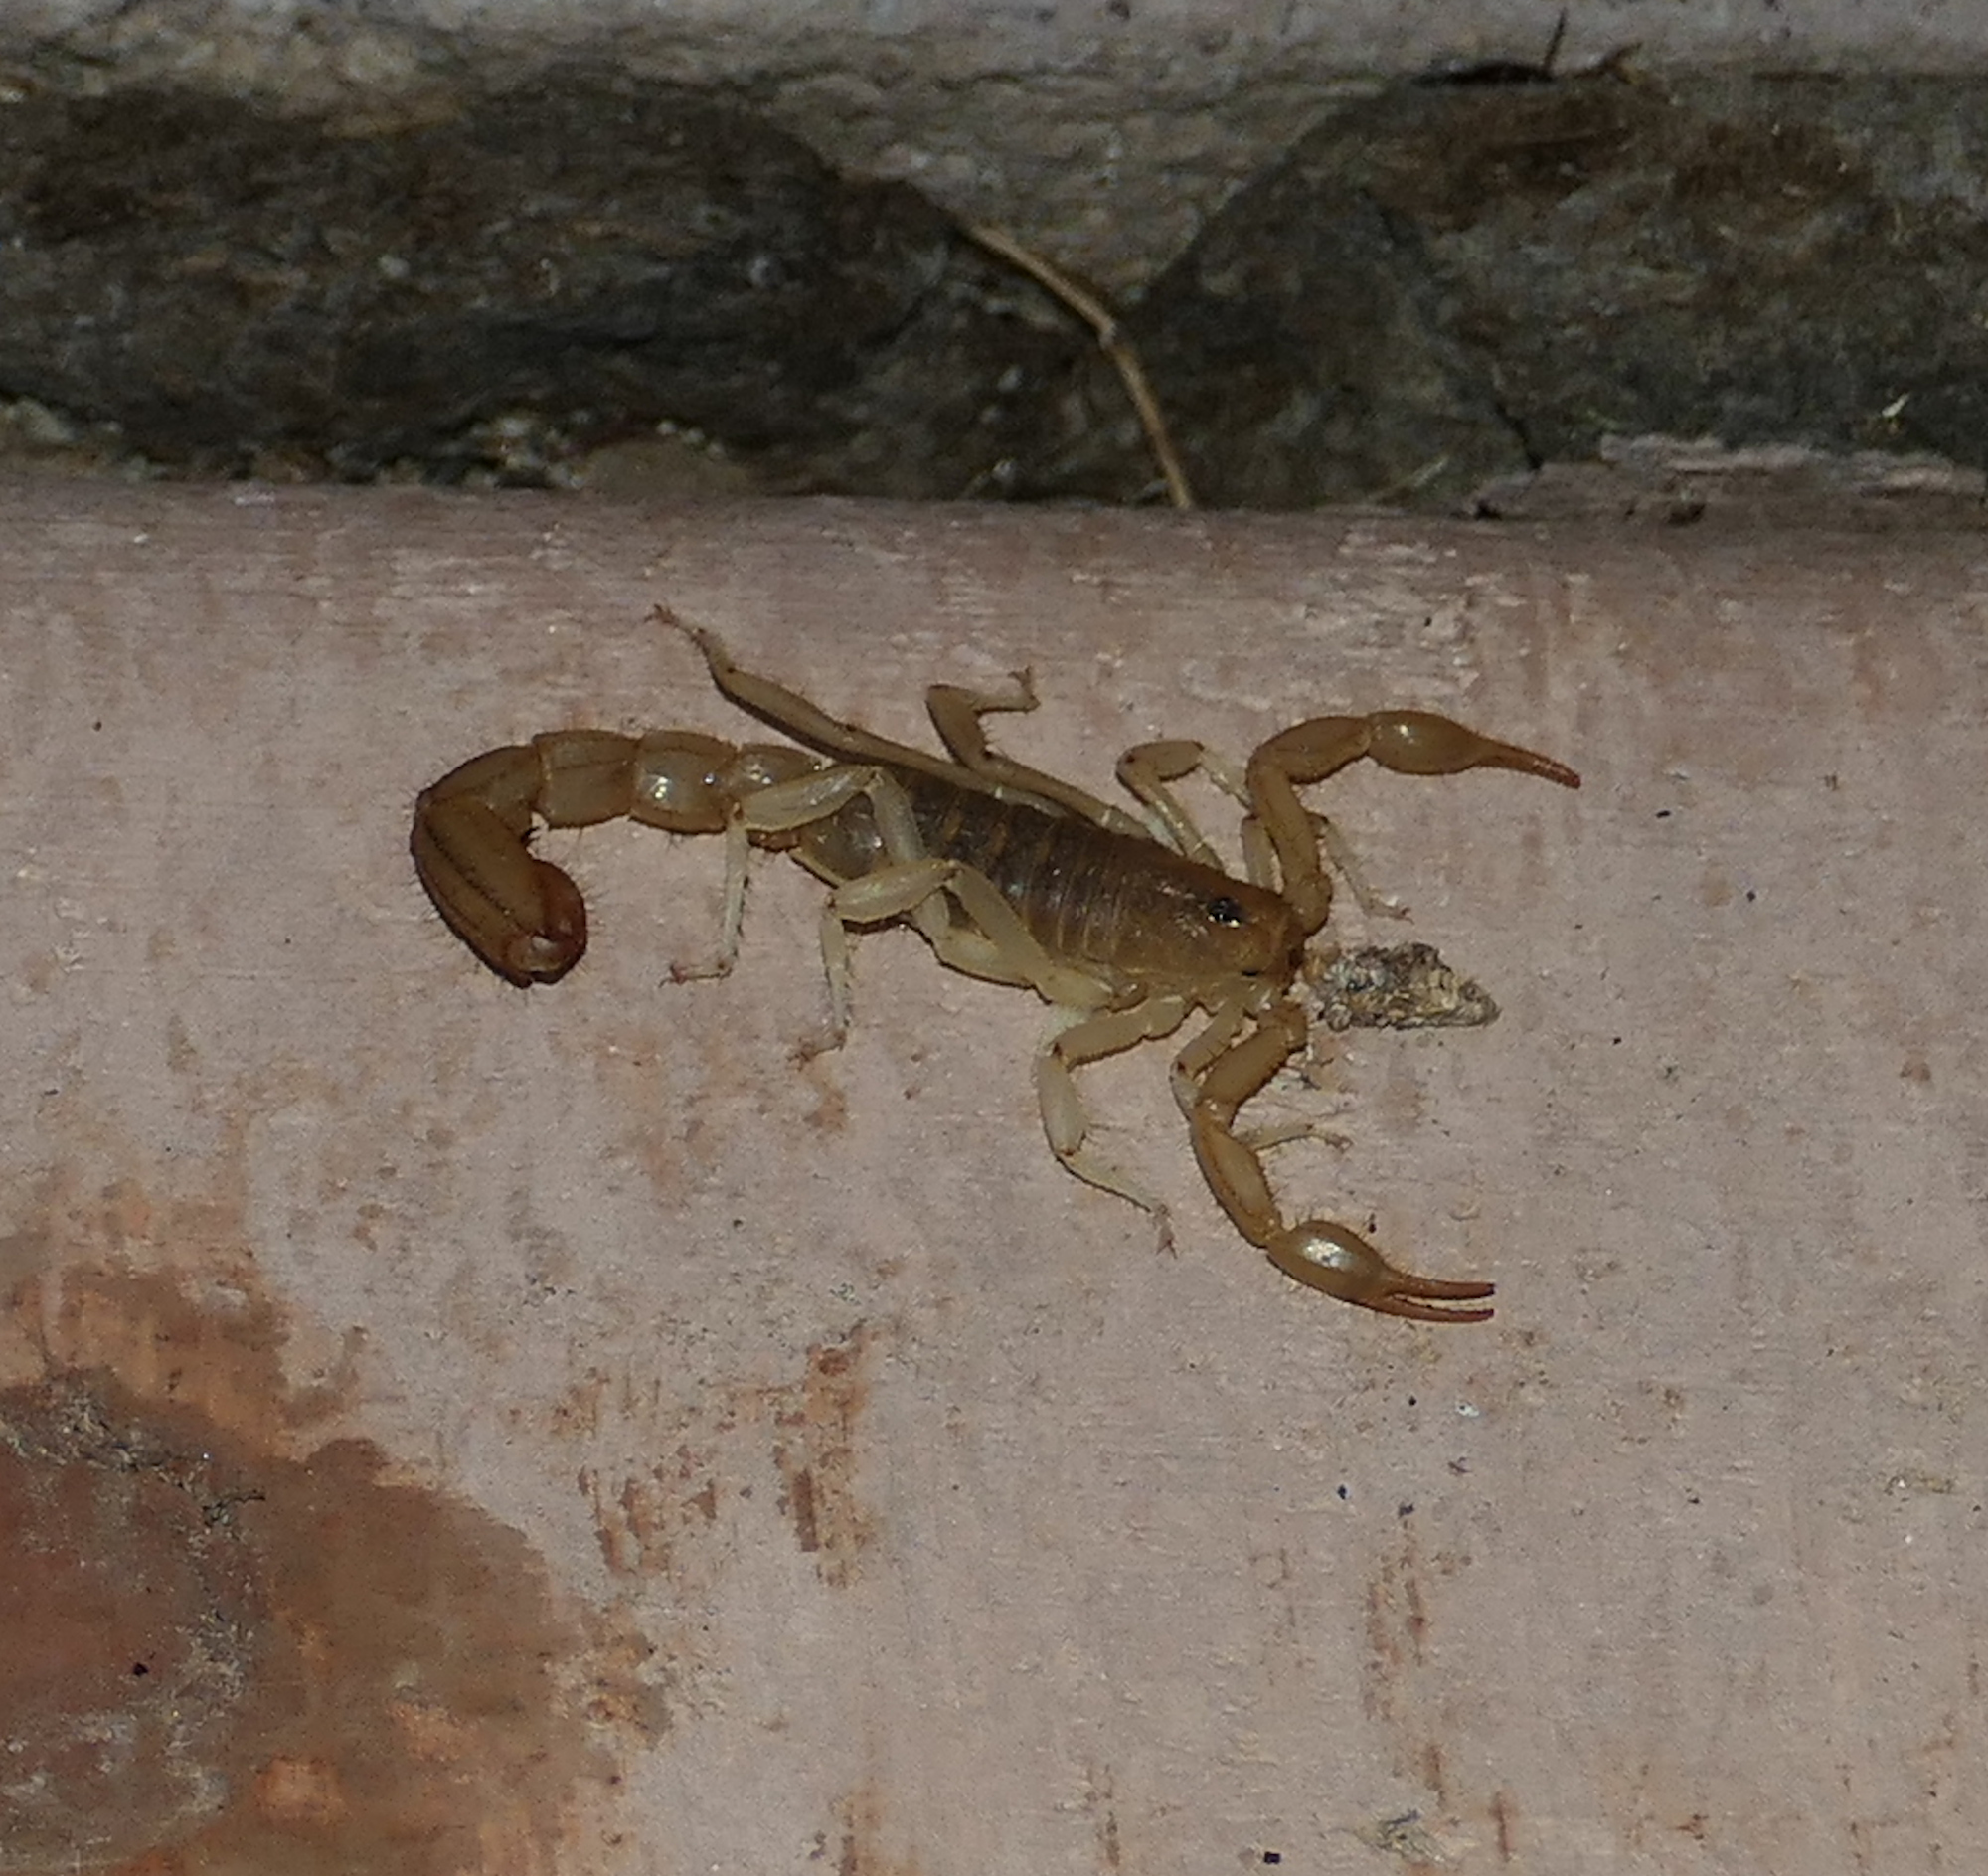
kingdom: Animalia
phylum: Arthropoda
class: Arachnida
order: Scorpiones
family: Vaejovidae
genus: Paravaejovis
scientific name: Paravaejovis spinigerus
